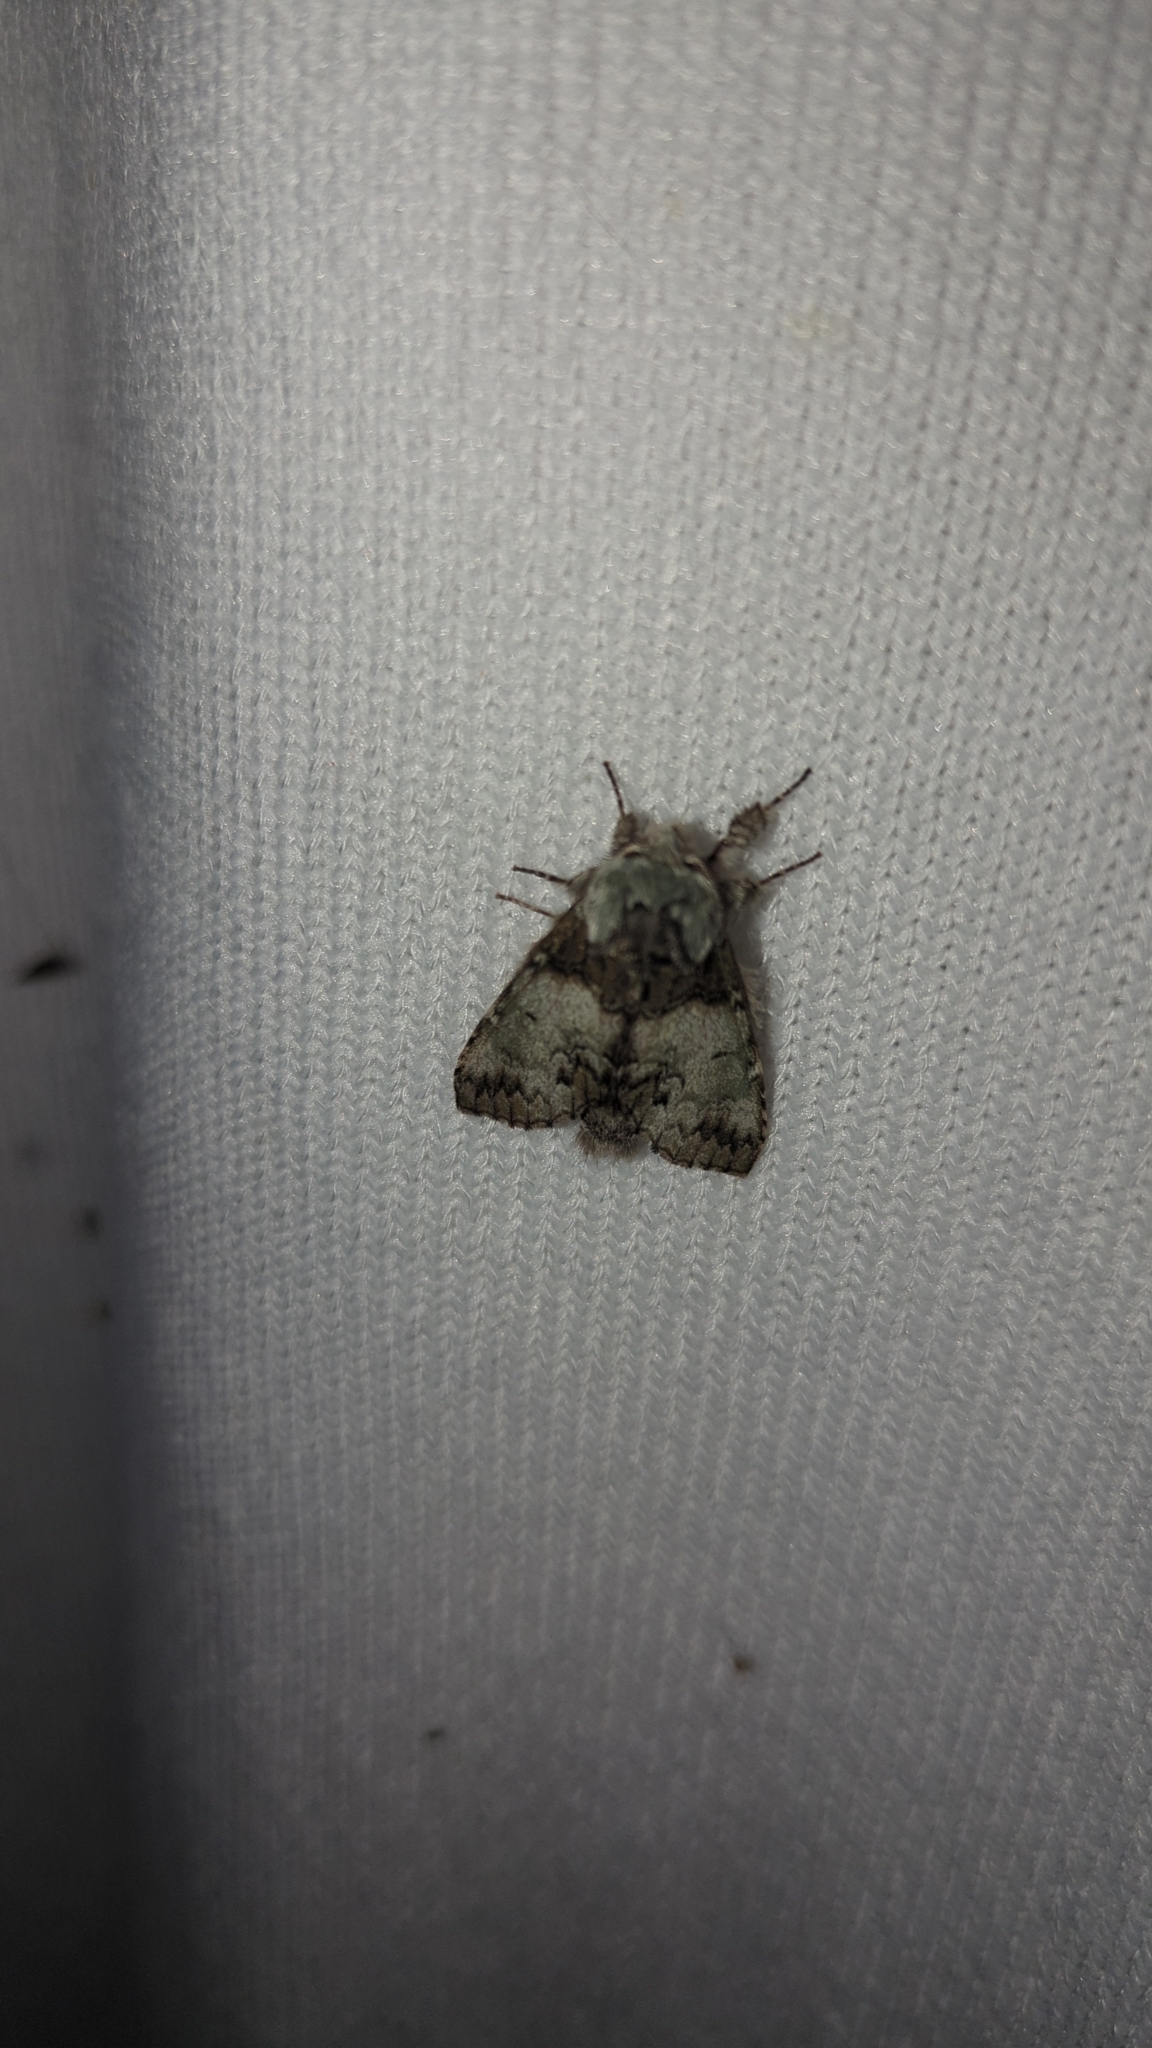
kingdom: Animalia
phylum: Arthropoda
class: Insecta
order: Lepidoptera
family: Notodontidae
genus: Macrurocampa
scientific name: Macrurocampa marthesia
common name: Mottled prominent
